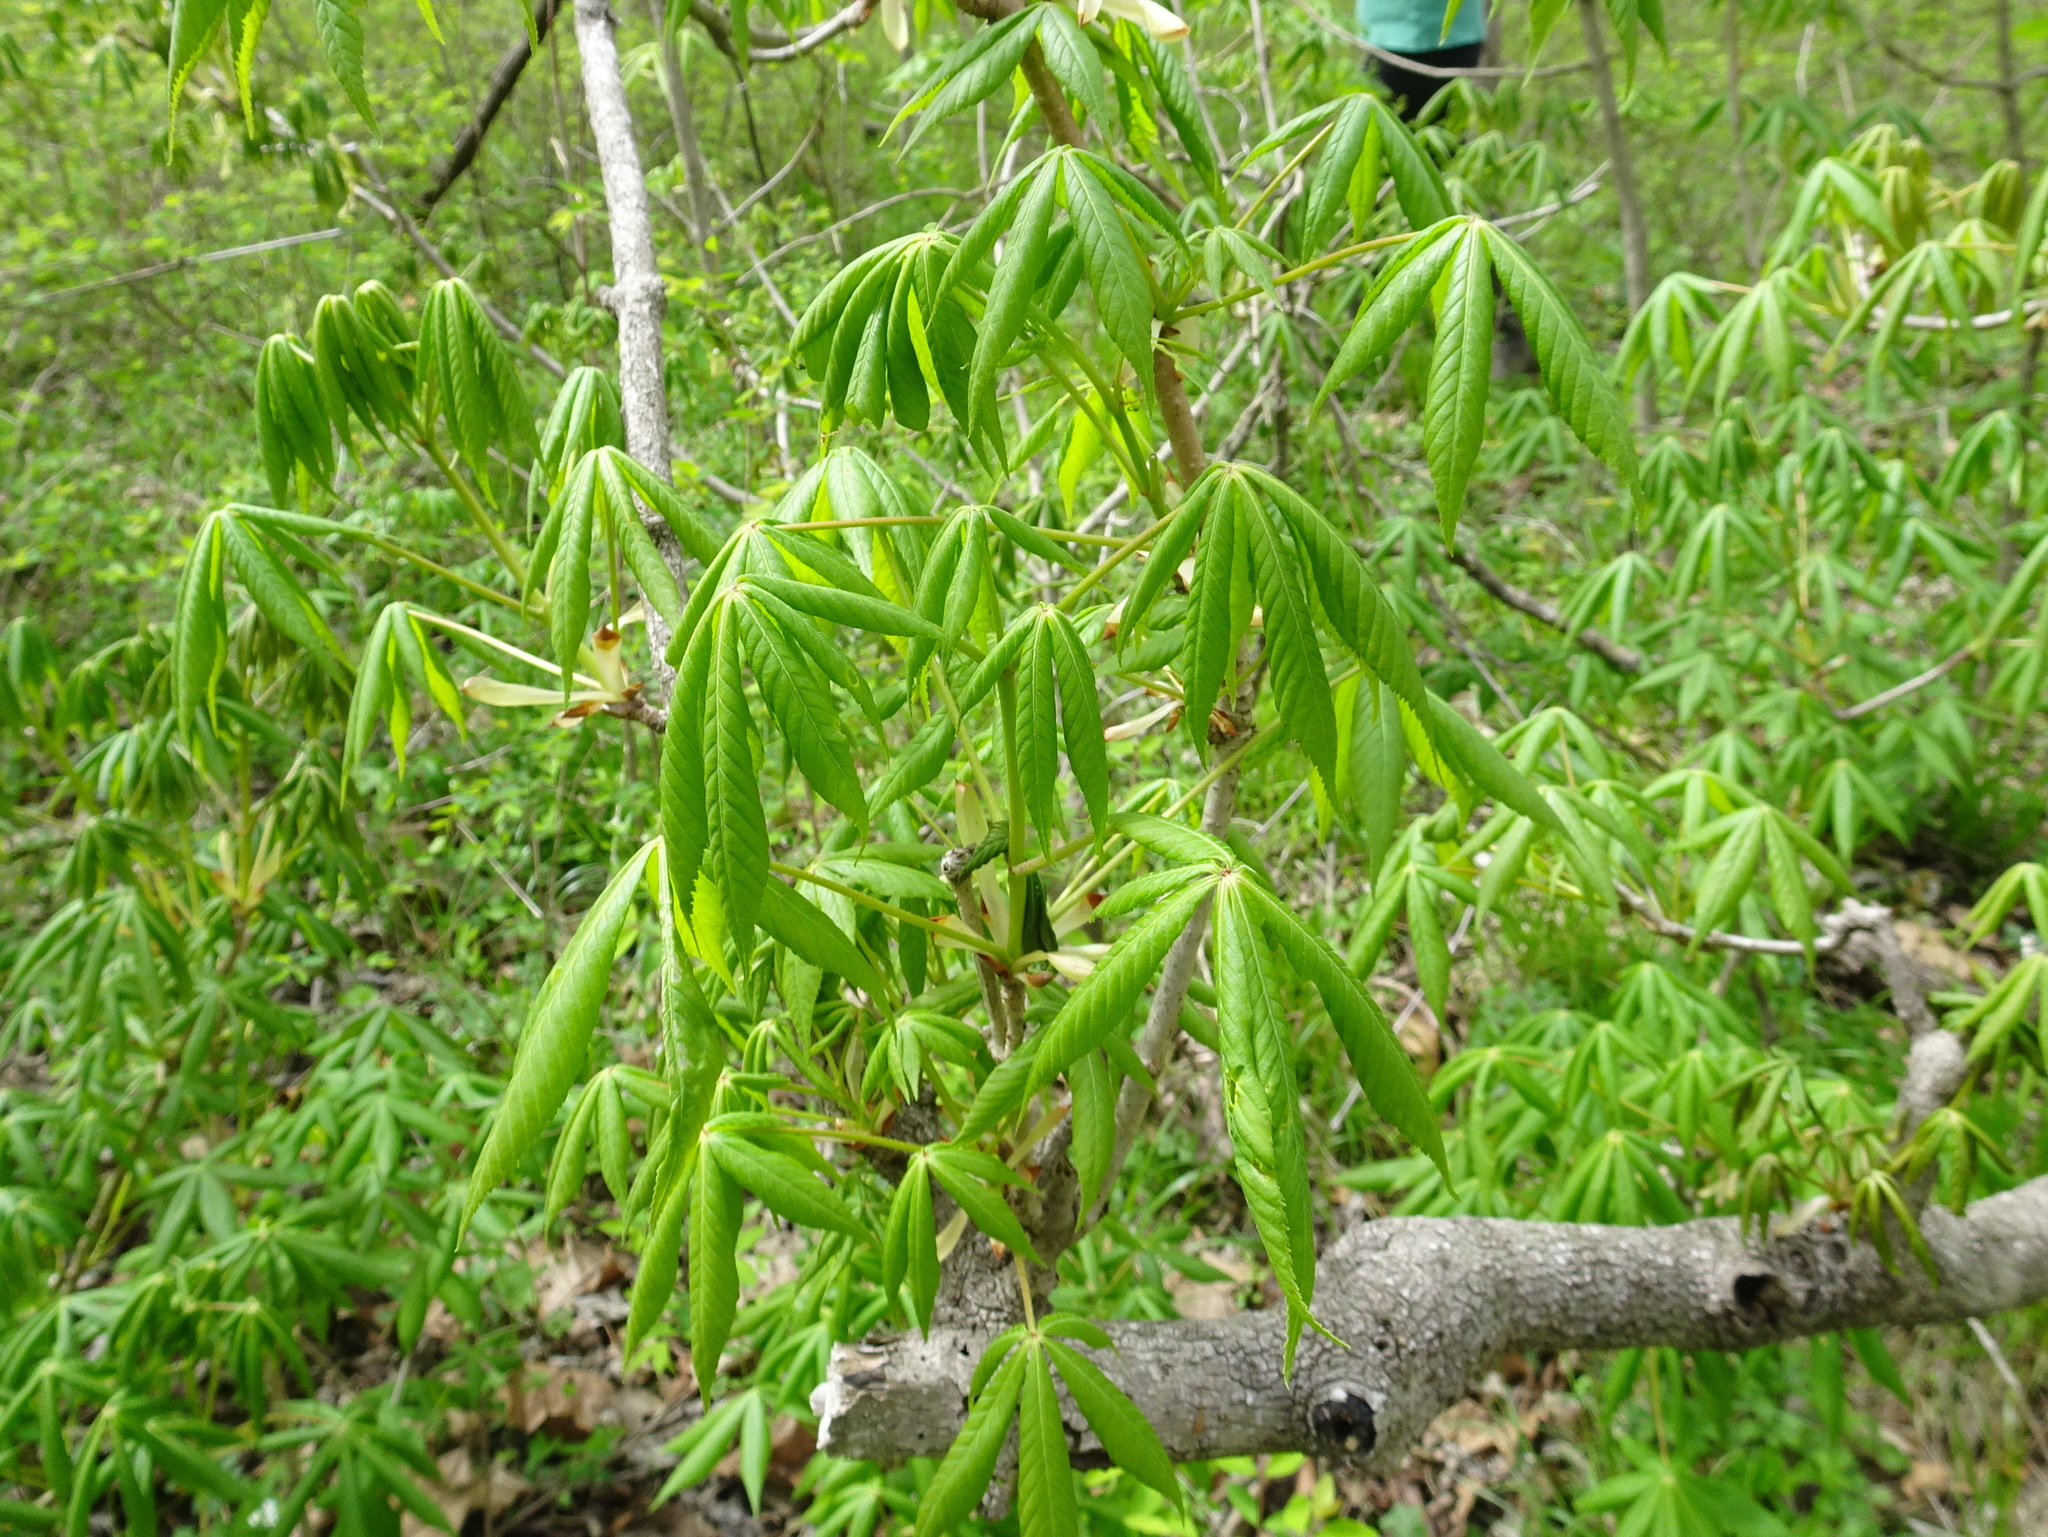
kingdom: Plantae
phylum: Tracheophyta
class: Magnoliopsida
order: Sapindales
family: Sapindaceae
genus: Aesculus
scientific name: Aesculus glabra
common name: Ohio buckeye
